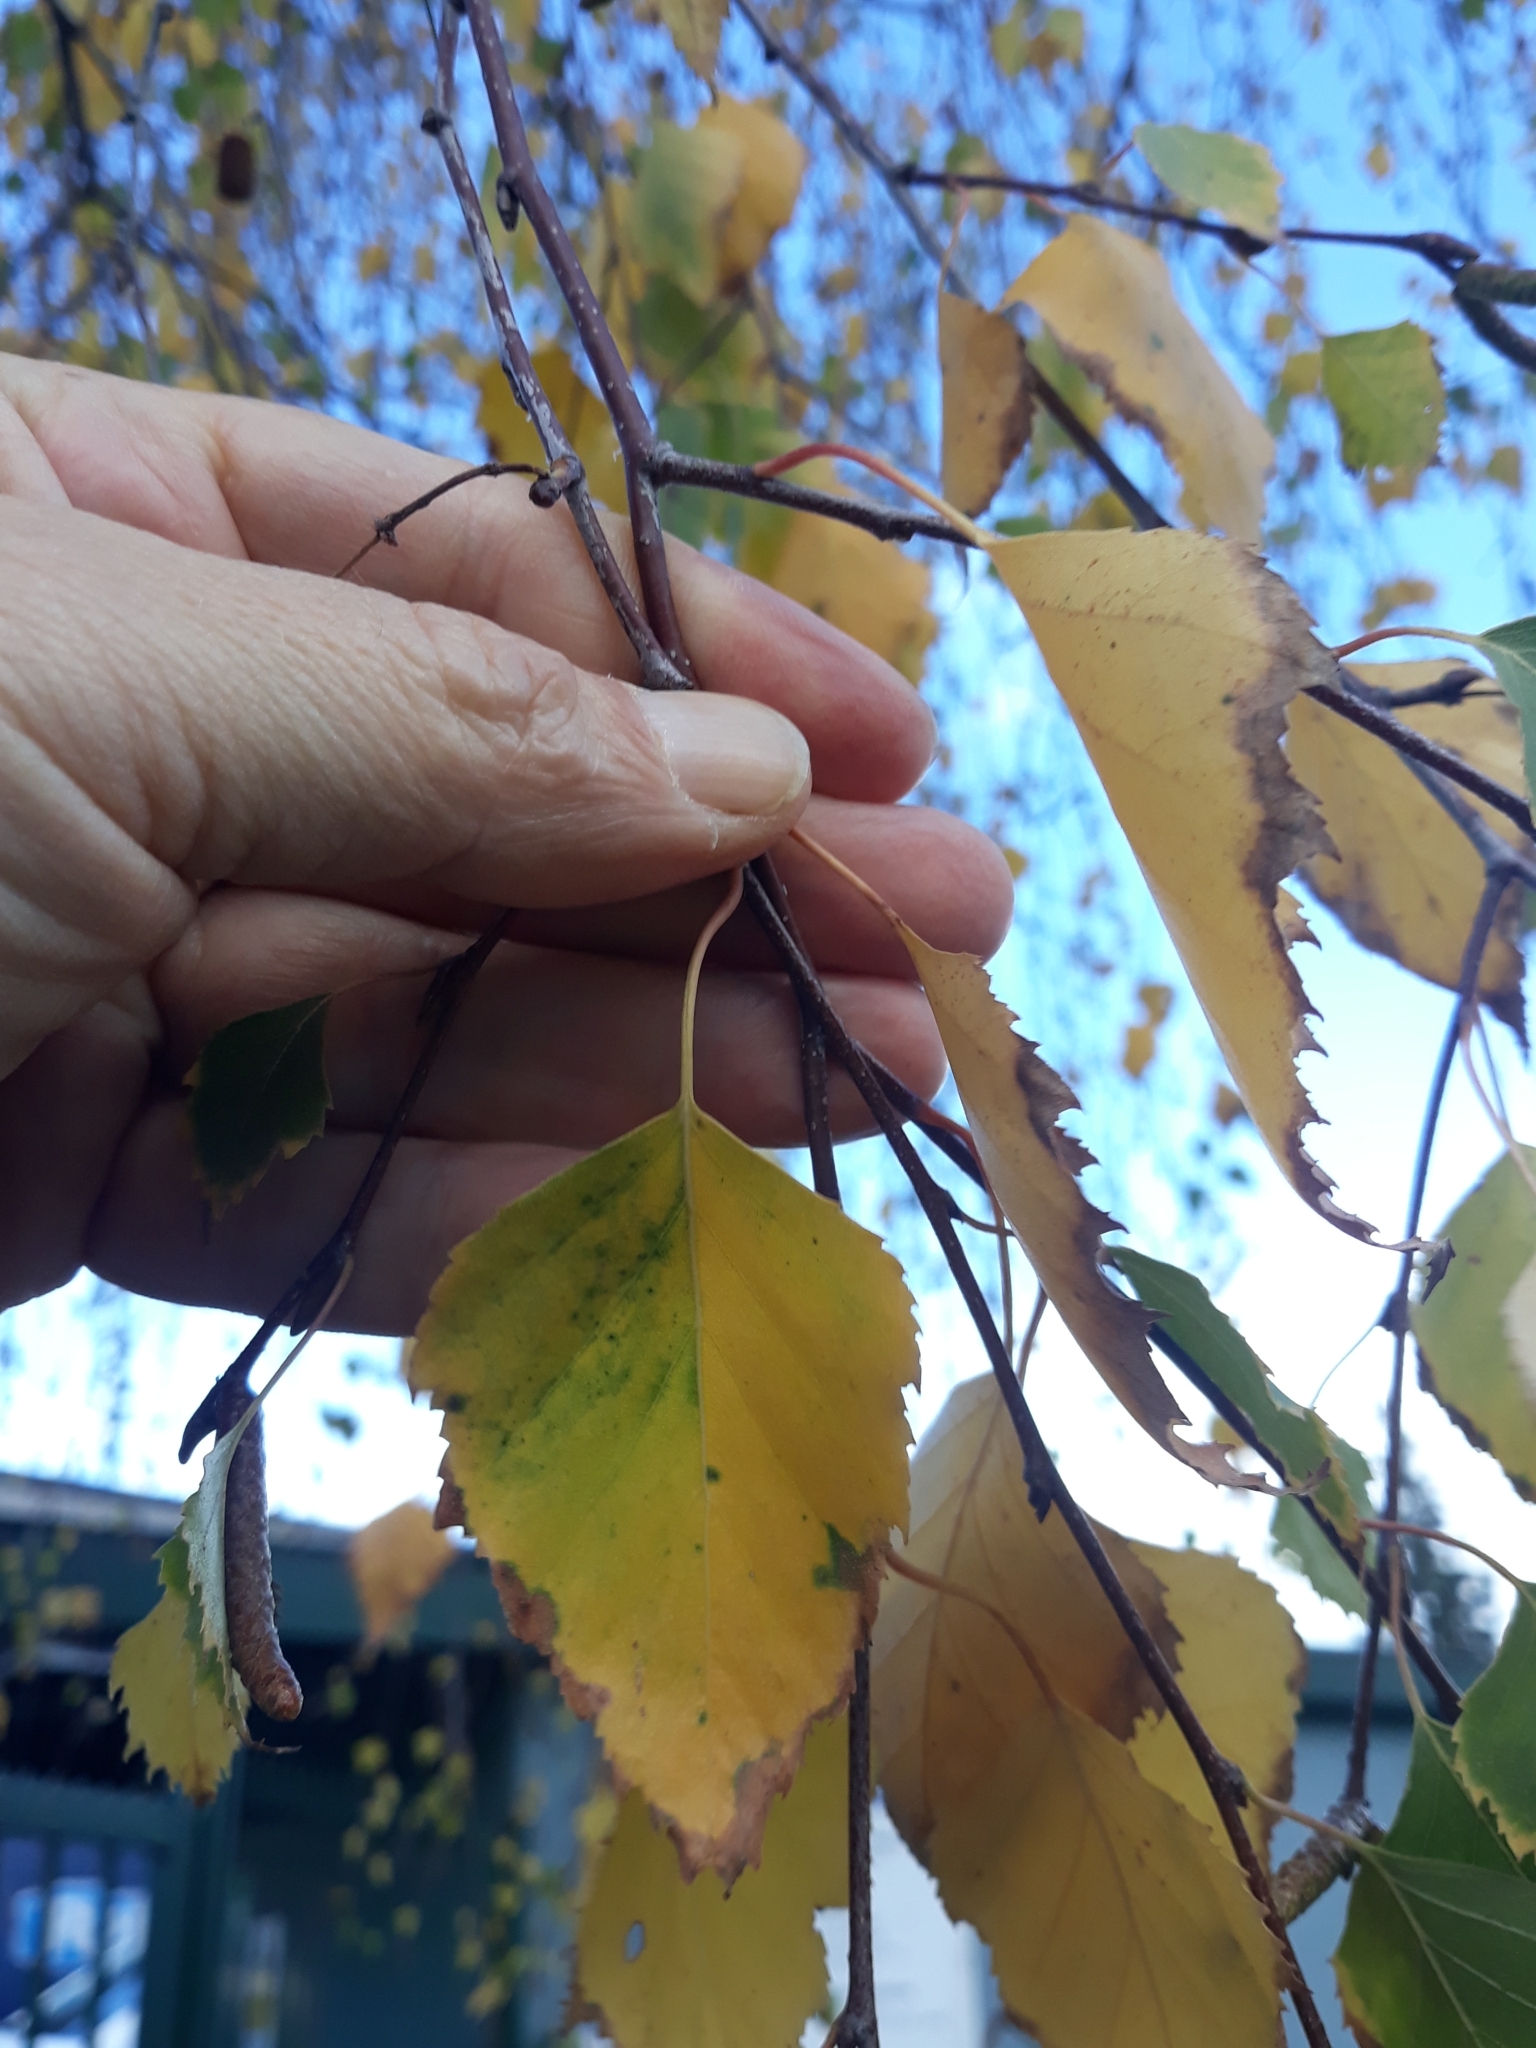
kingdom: Plantae
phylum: Tracheophyta
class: Magnoliopsida
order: Fagales
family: Betulaceae
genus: Betula
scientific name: Betula pendula
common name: Silver birch
